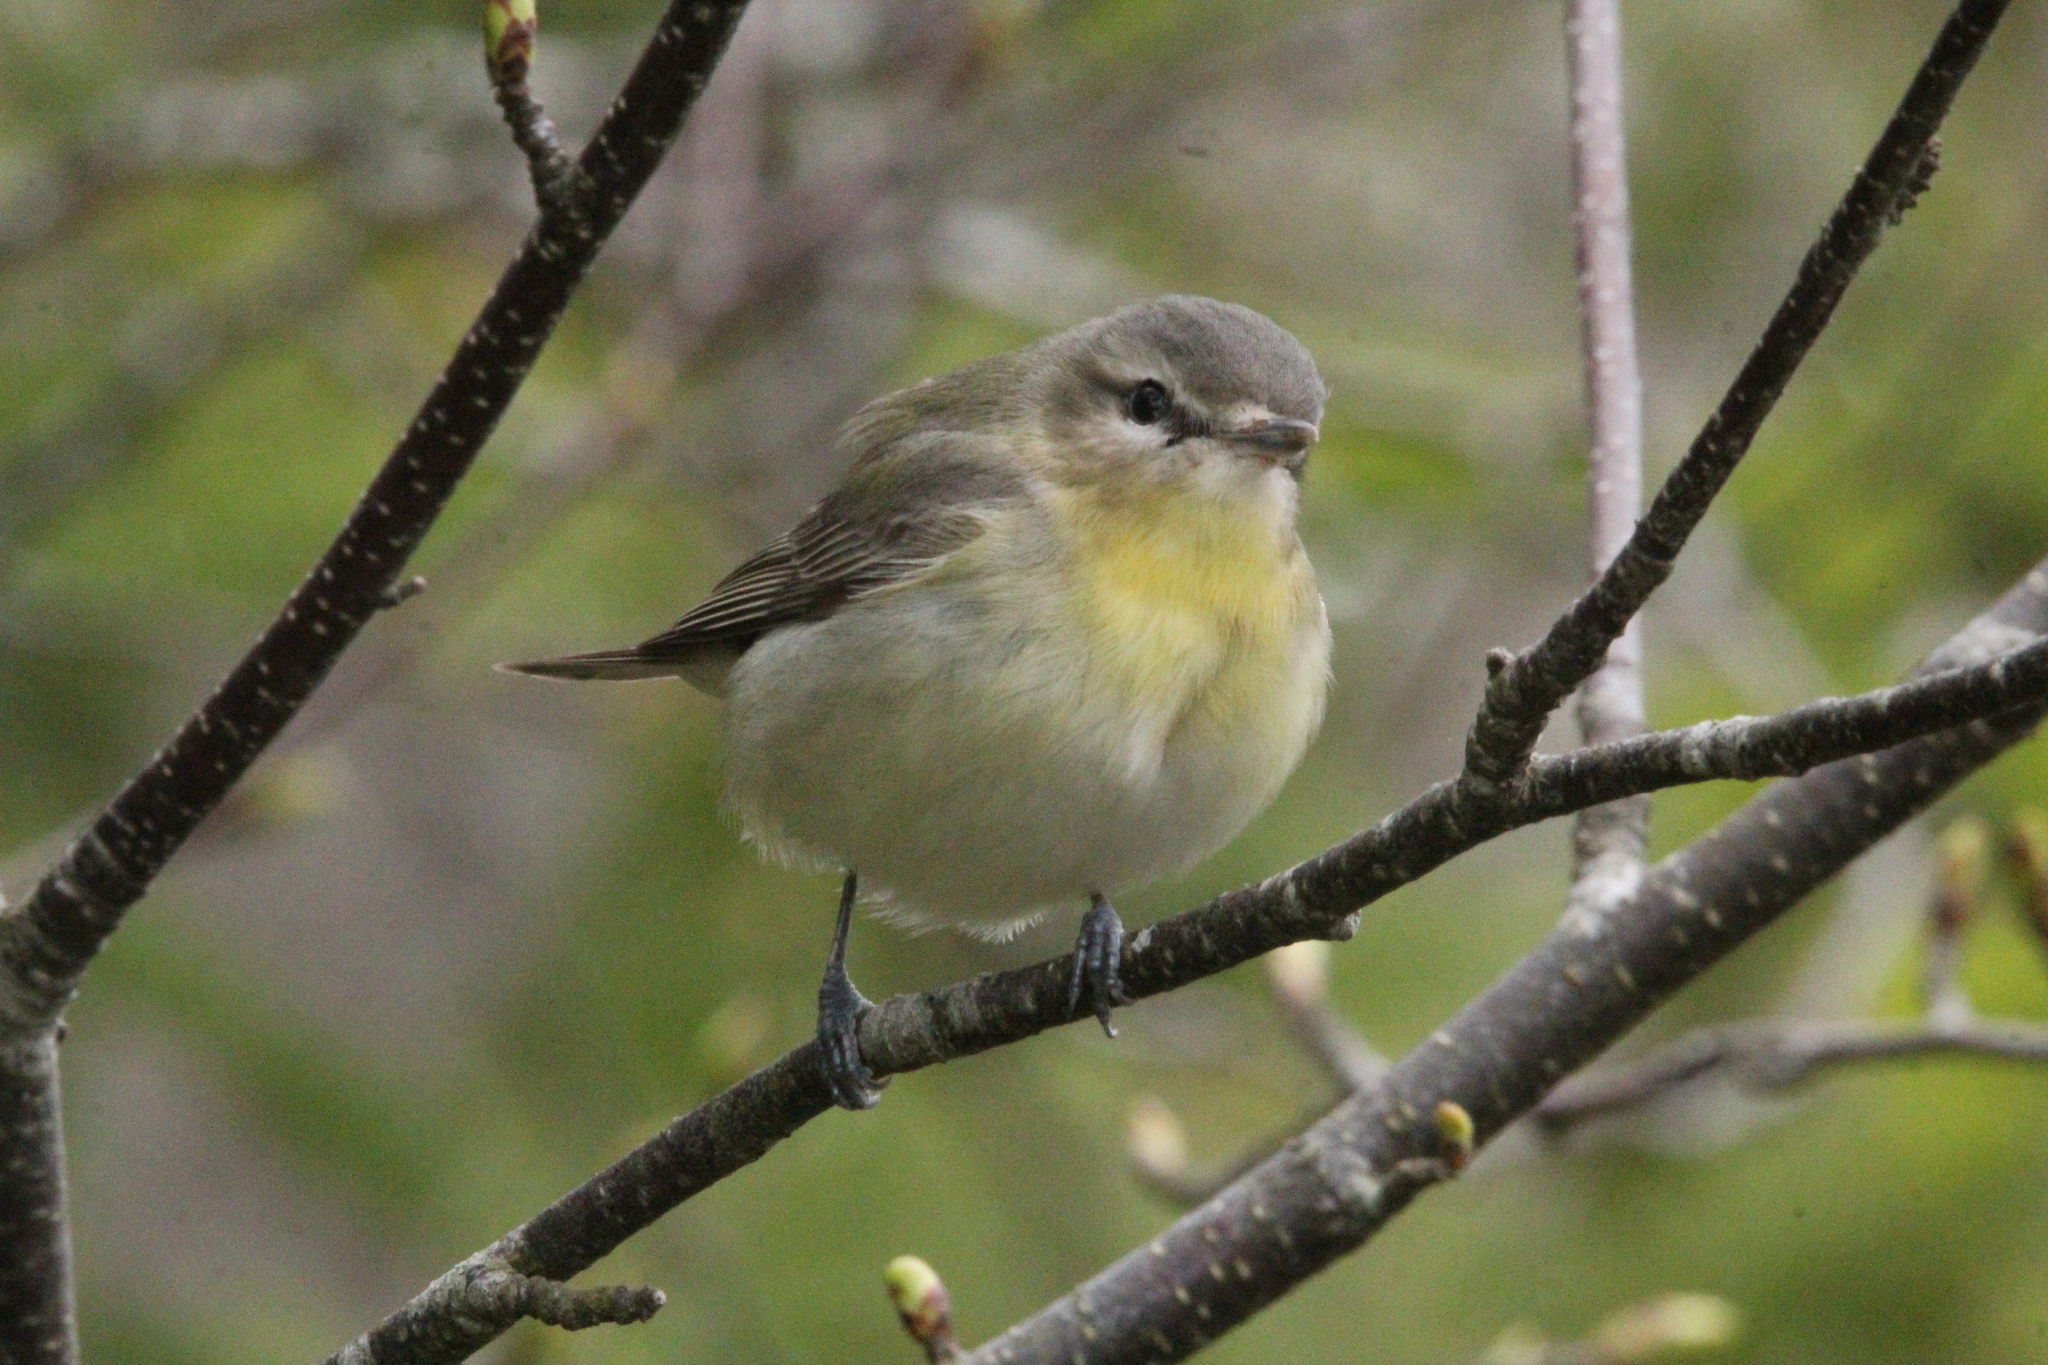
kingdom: Animalia
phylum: Chordata
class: Aves
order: Passeriformes
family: Vireonidae
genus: Vireo
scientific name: Vireo philadelphicus
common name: Philadelphia vireo
